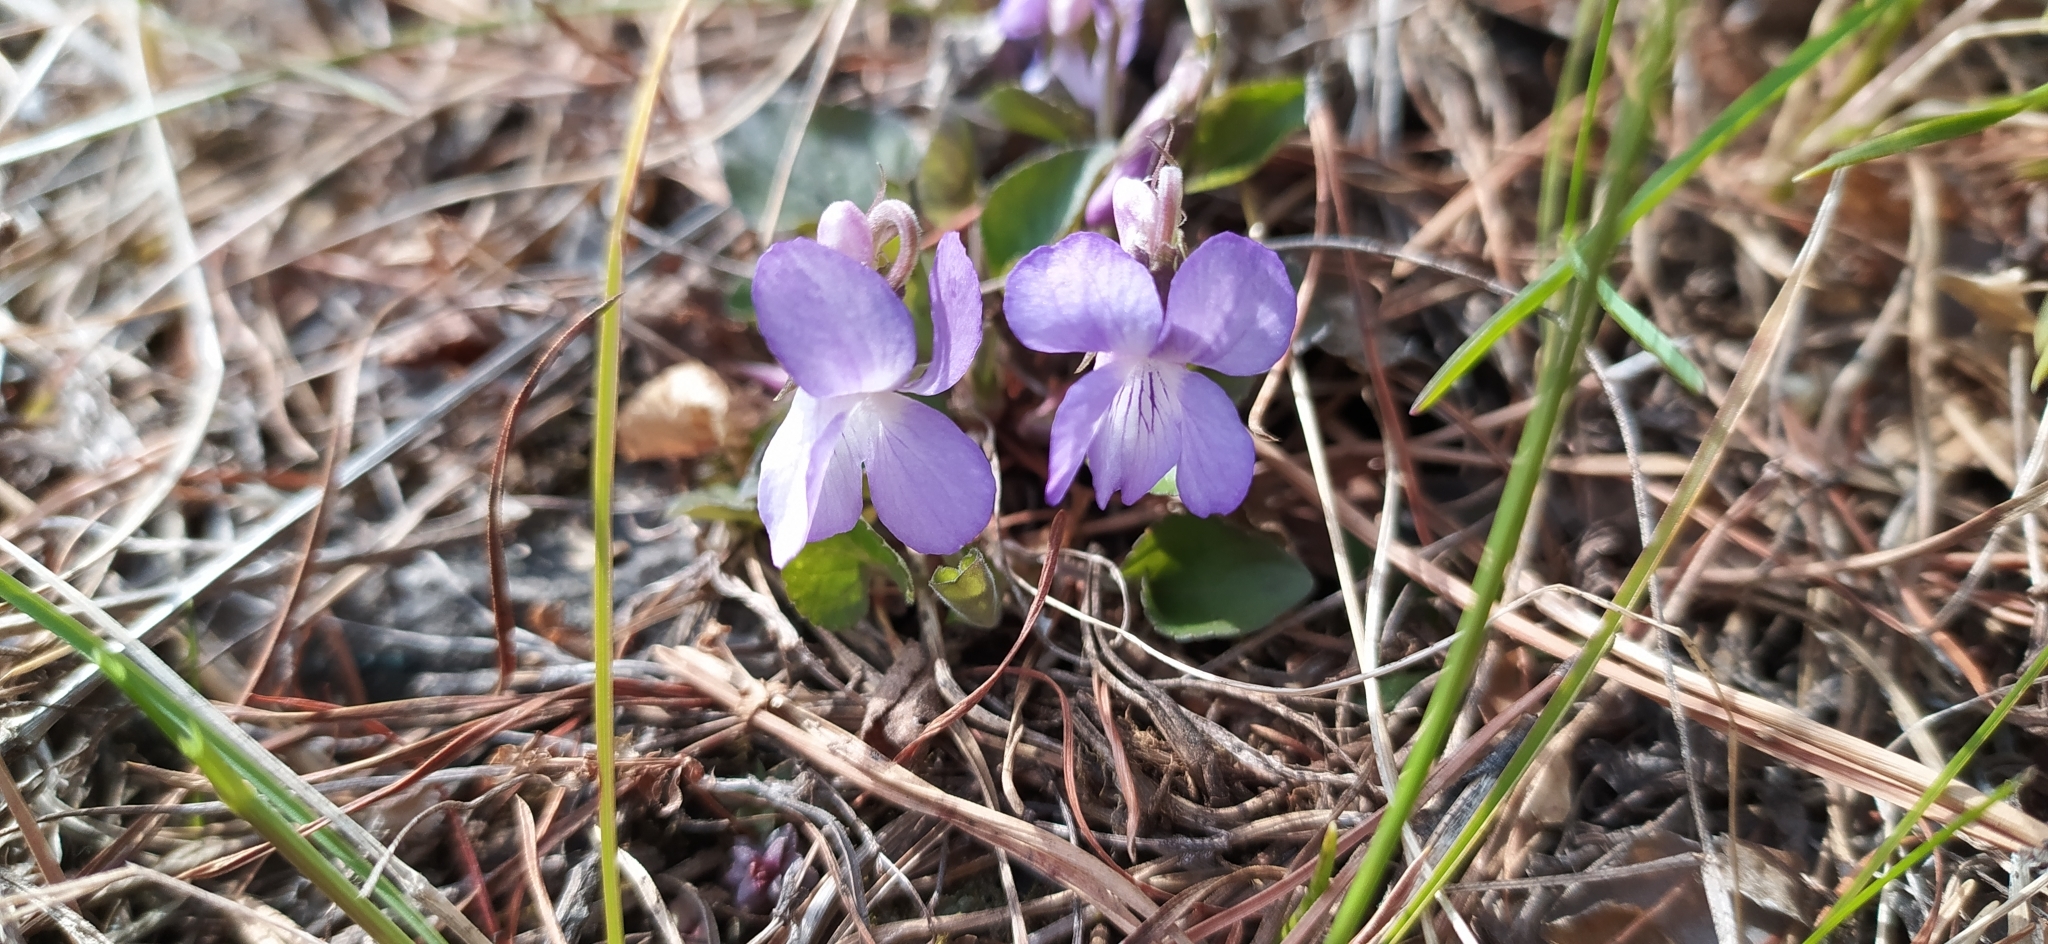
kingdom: Plantae
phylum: Tracheophyta
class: Magnoliopsida
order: Malpighiales
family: Violaceae
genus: Viola
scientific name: Viola rupestris
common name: Teesdale violet
